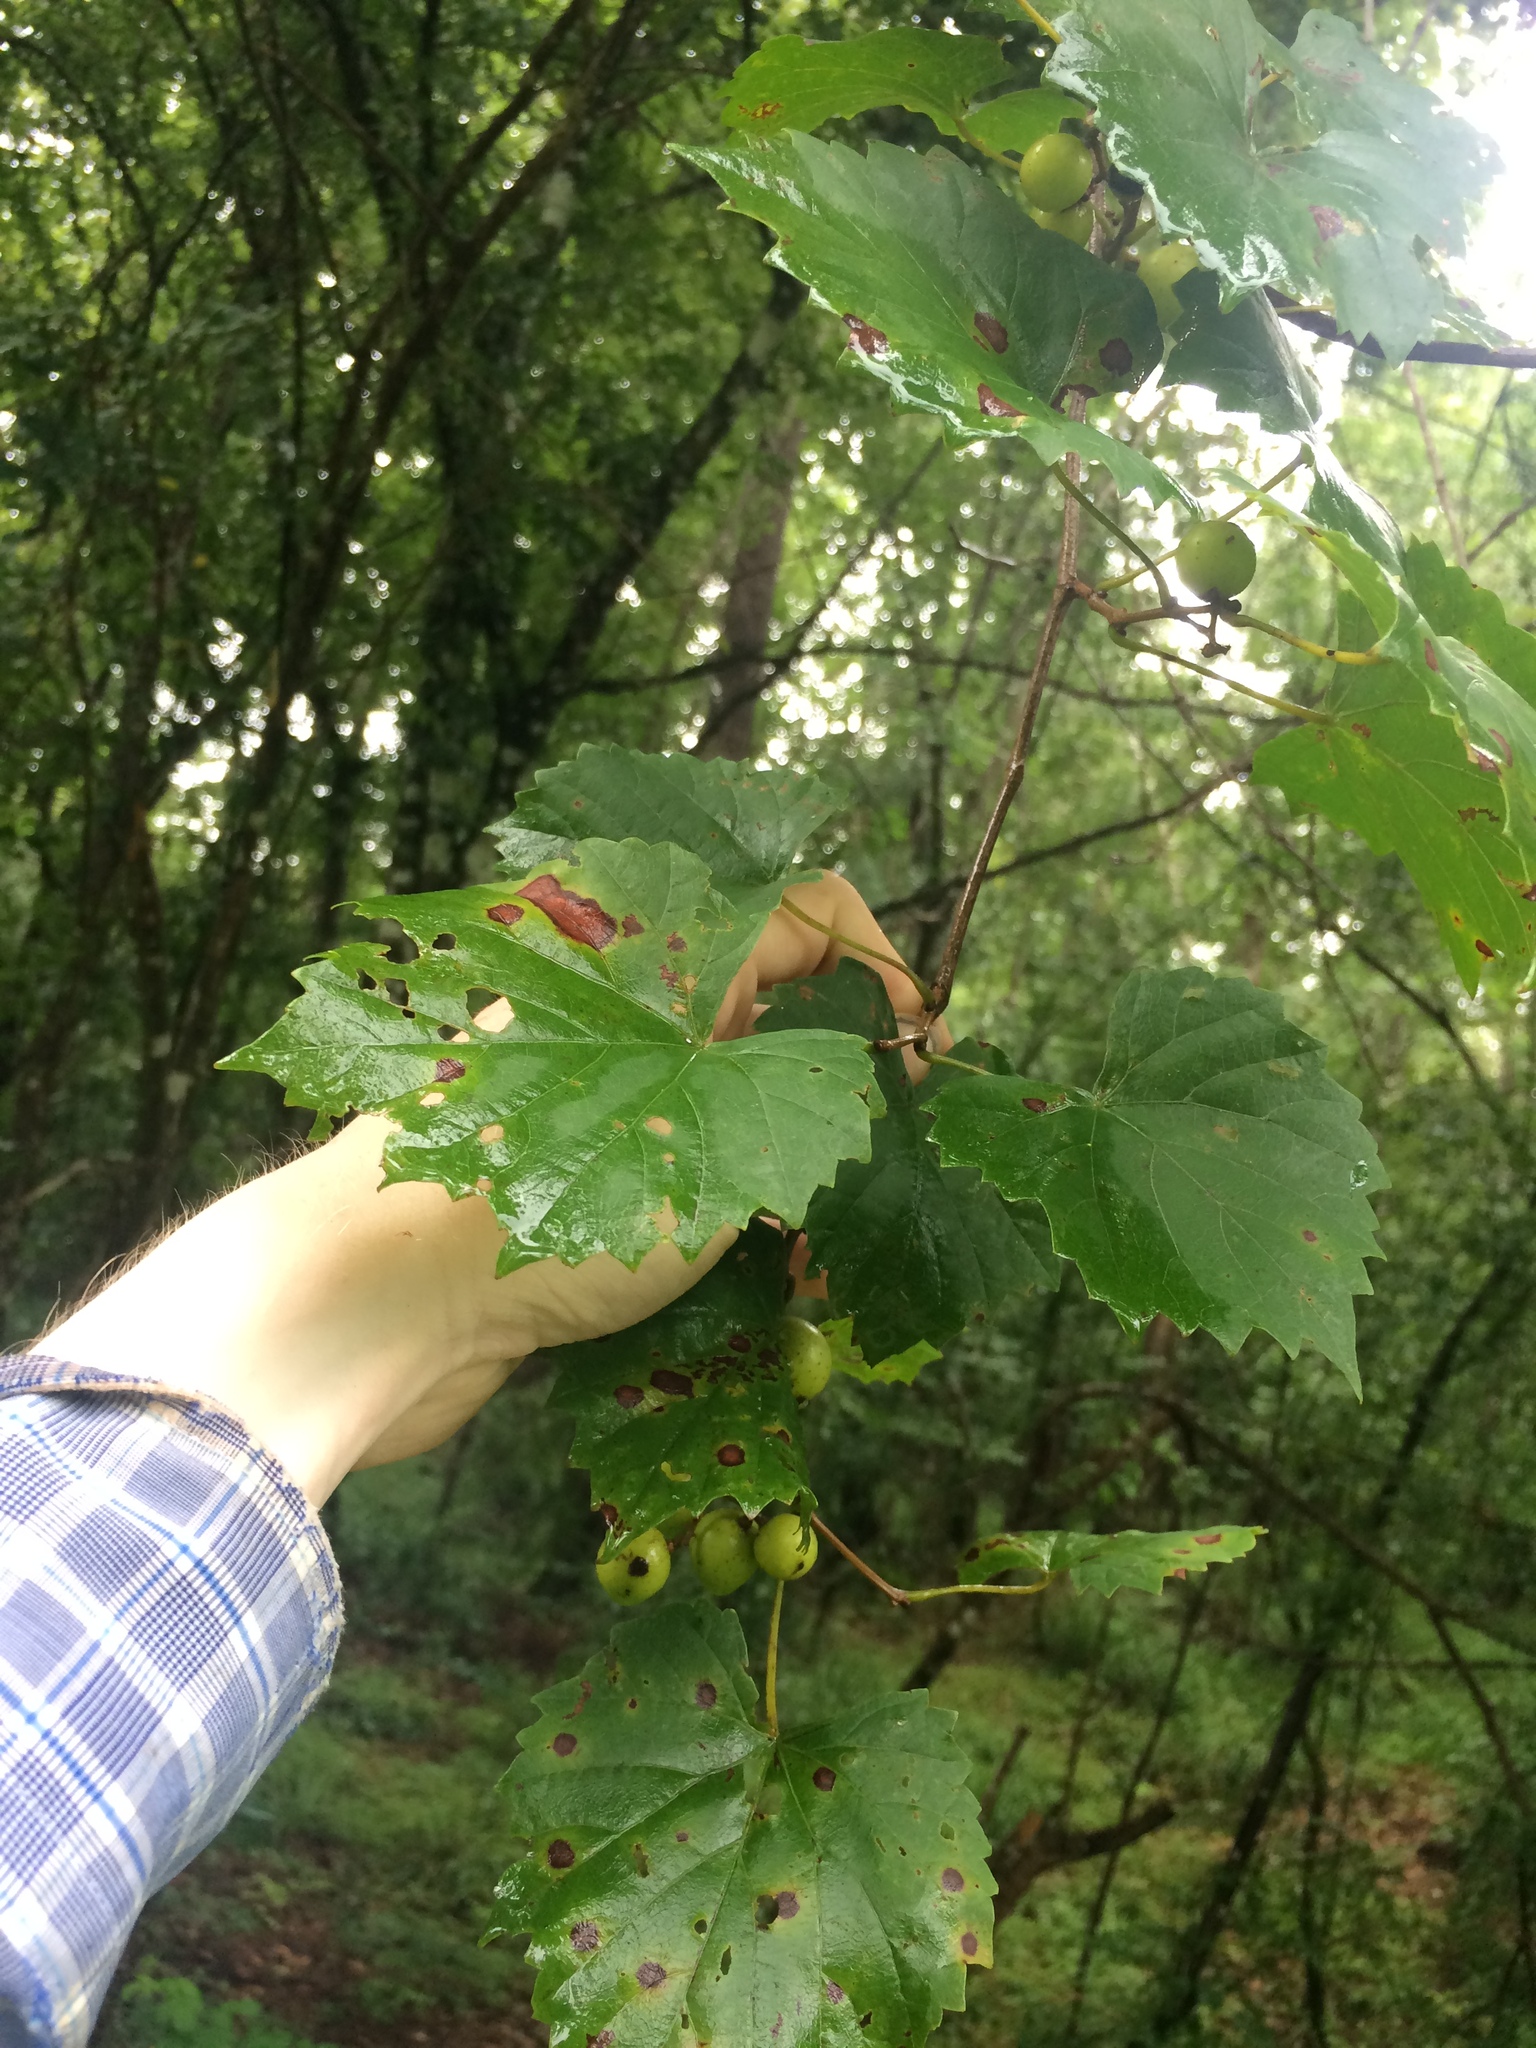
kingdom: Plantae
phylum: Tracheophyta
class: Magnoliopsida
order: Vitales
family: Vitaceae
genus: Vitis
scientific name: Vitis rotundifolia
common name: Muscadine grape
